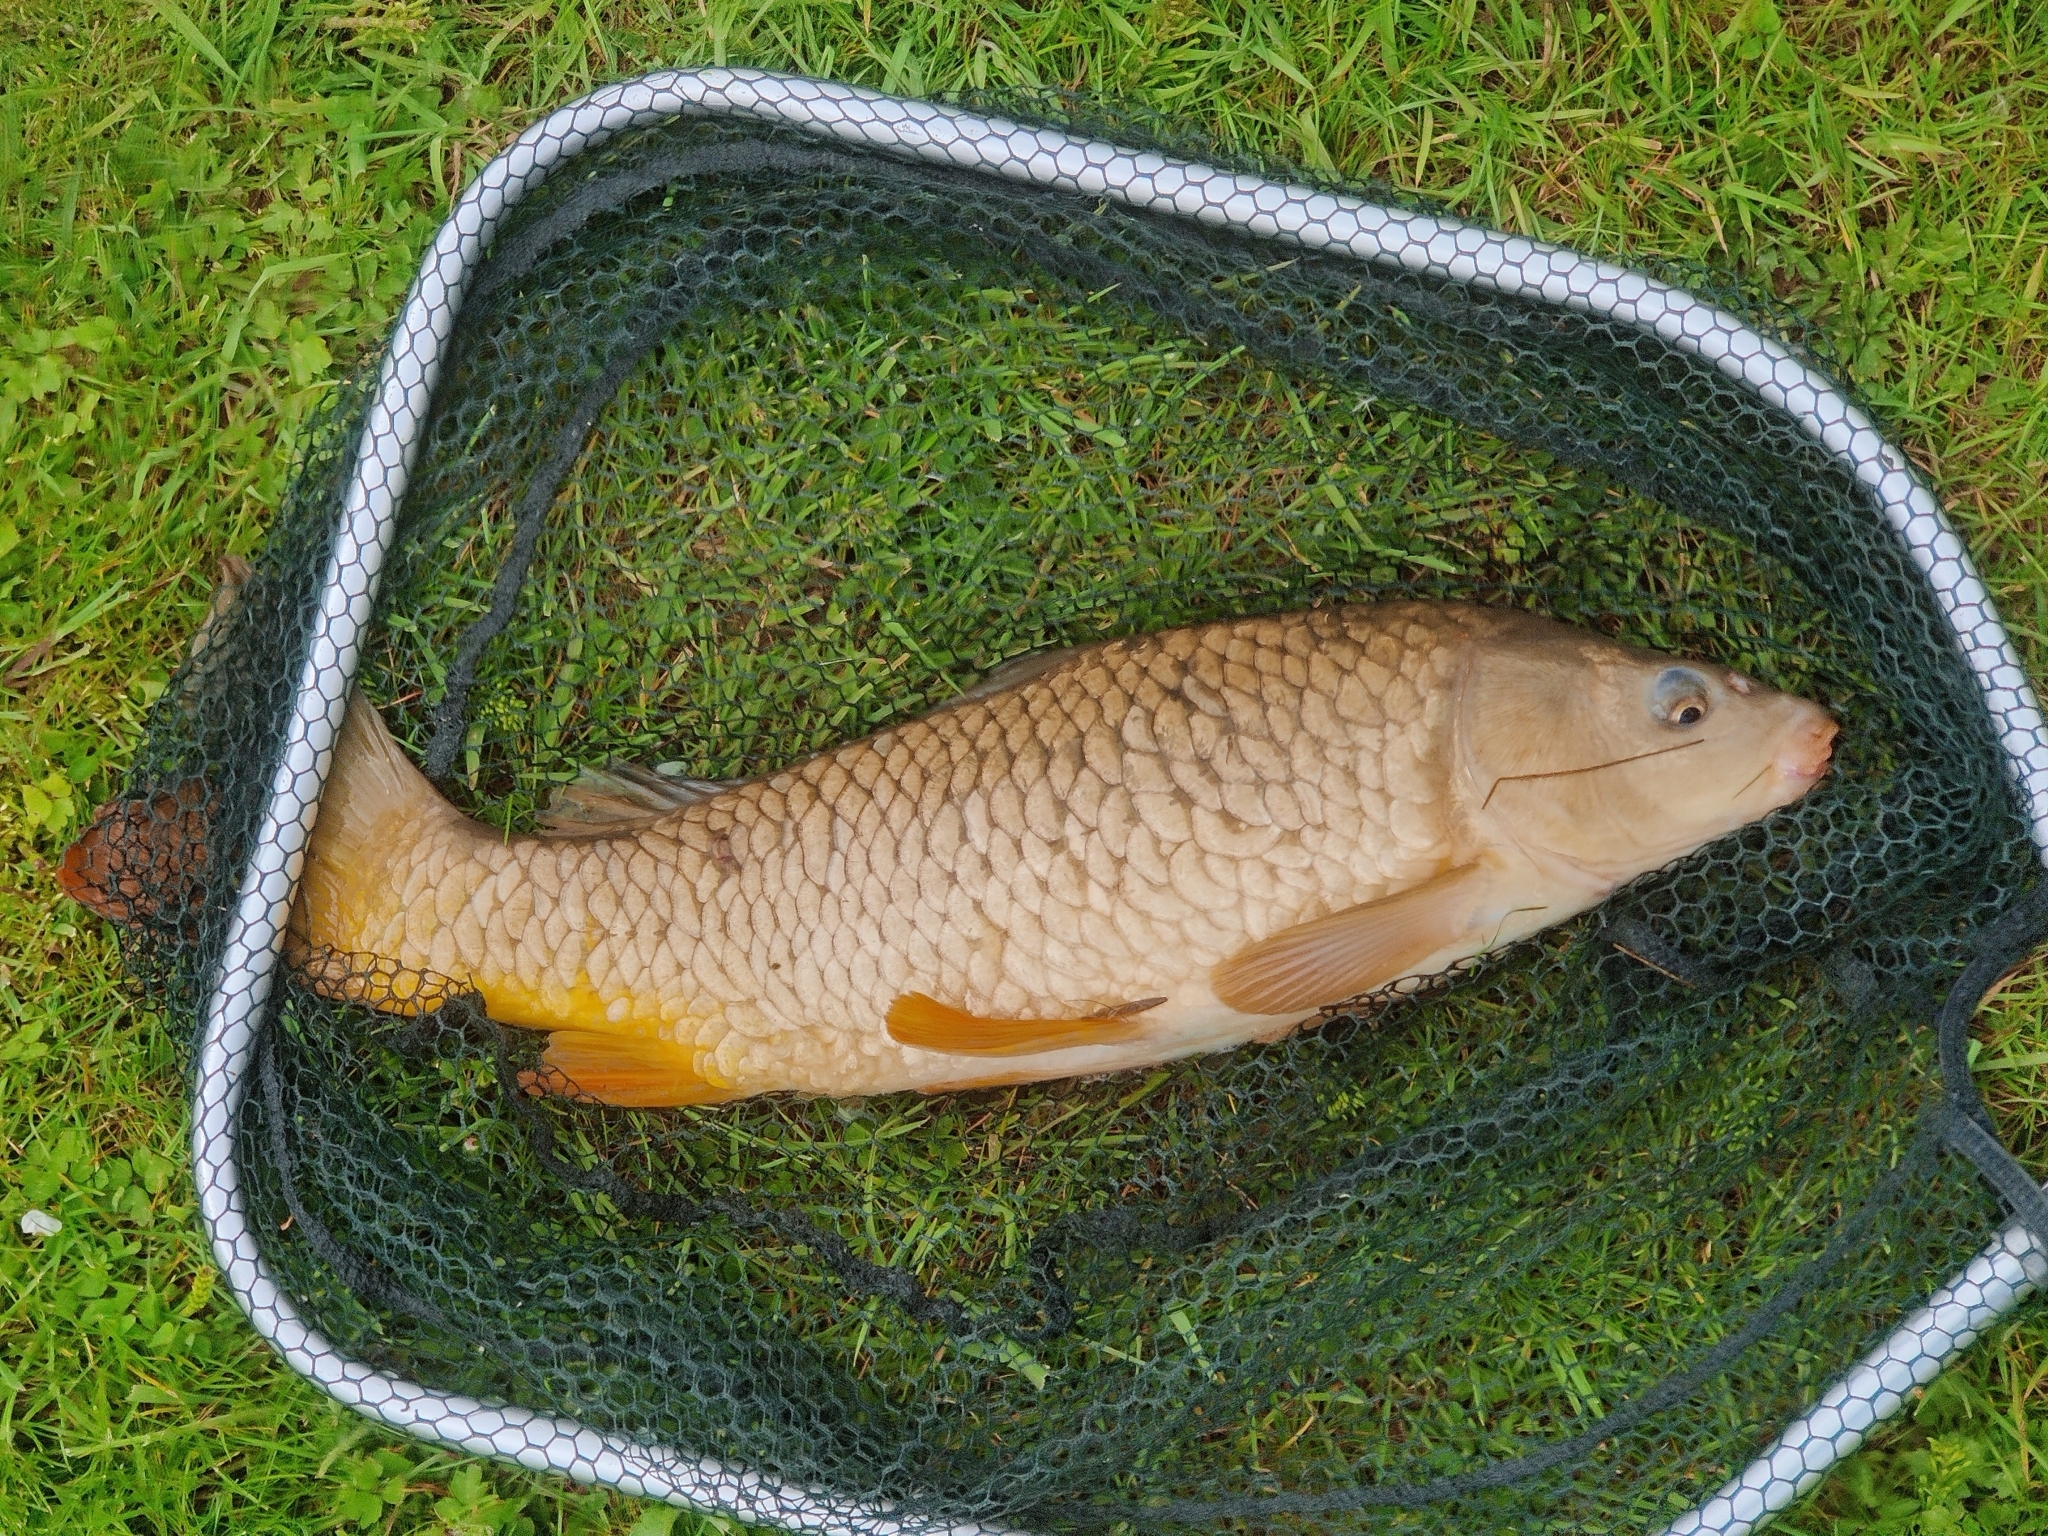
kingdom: Animalia
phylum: Chordata
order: Cypriniformes
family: Cyprinidae
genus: Cyprinus
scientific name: Cyprinus carpio
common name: Common carp
